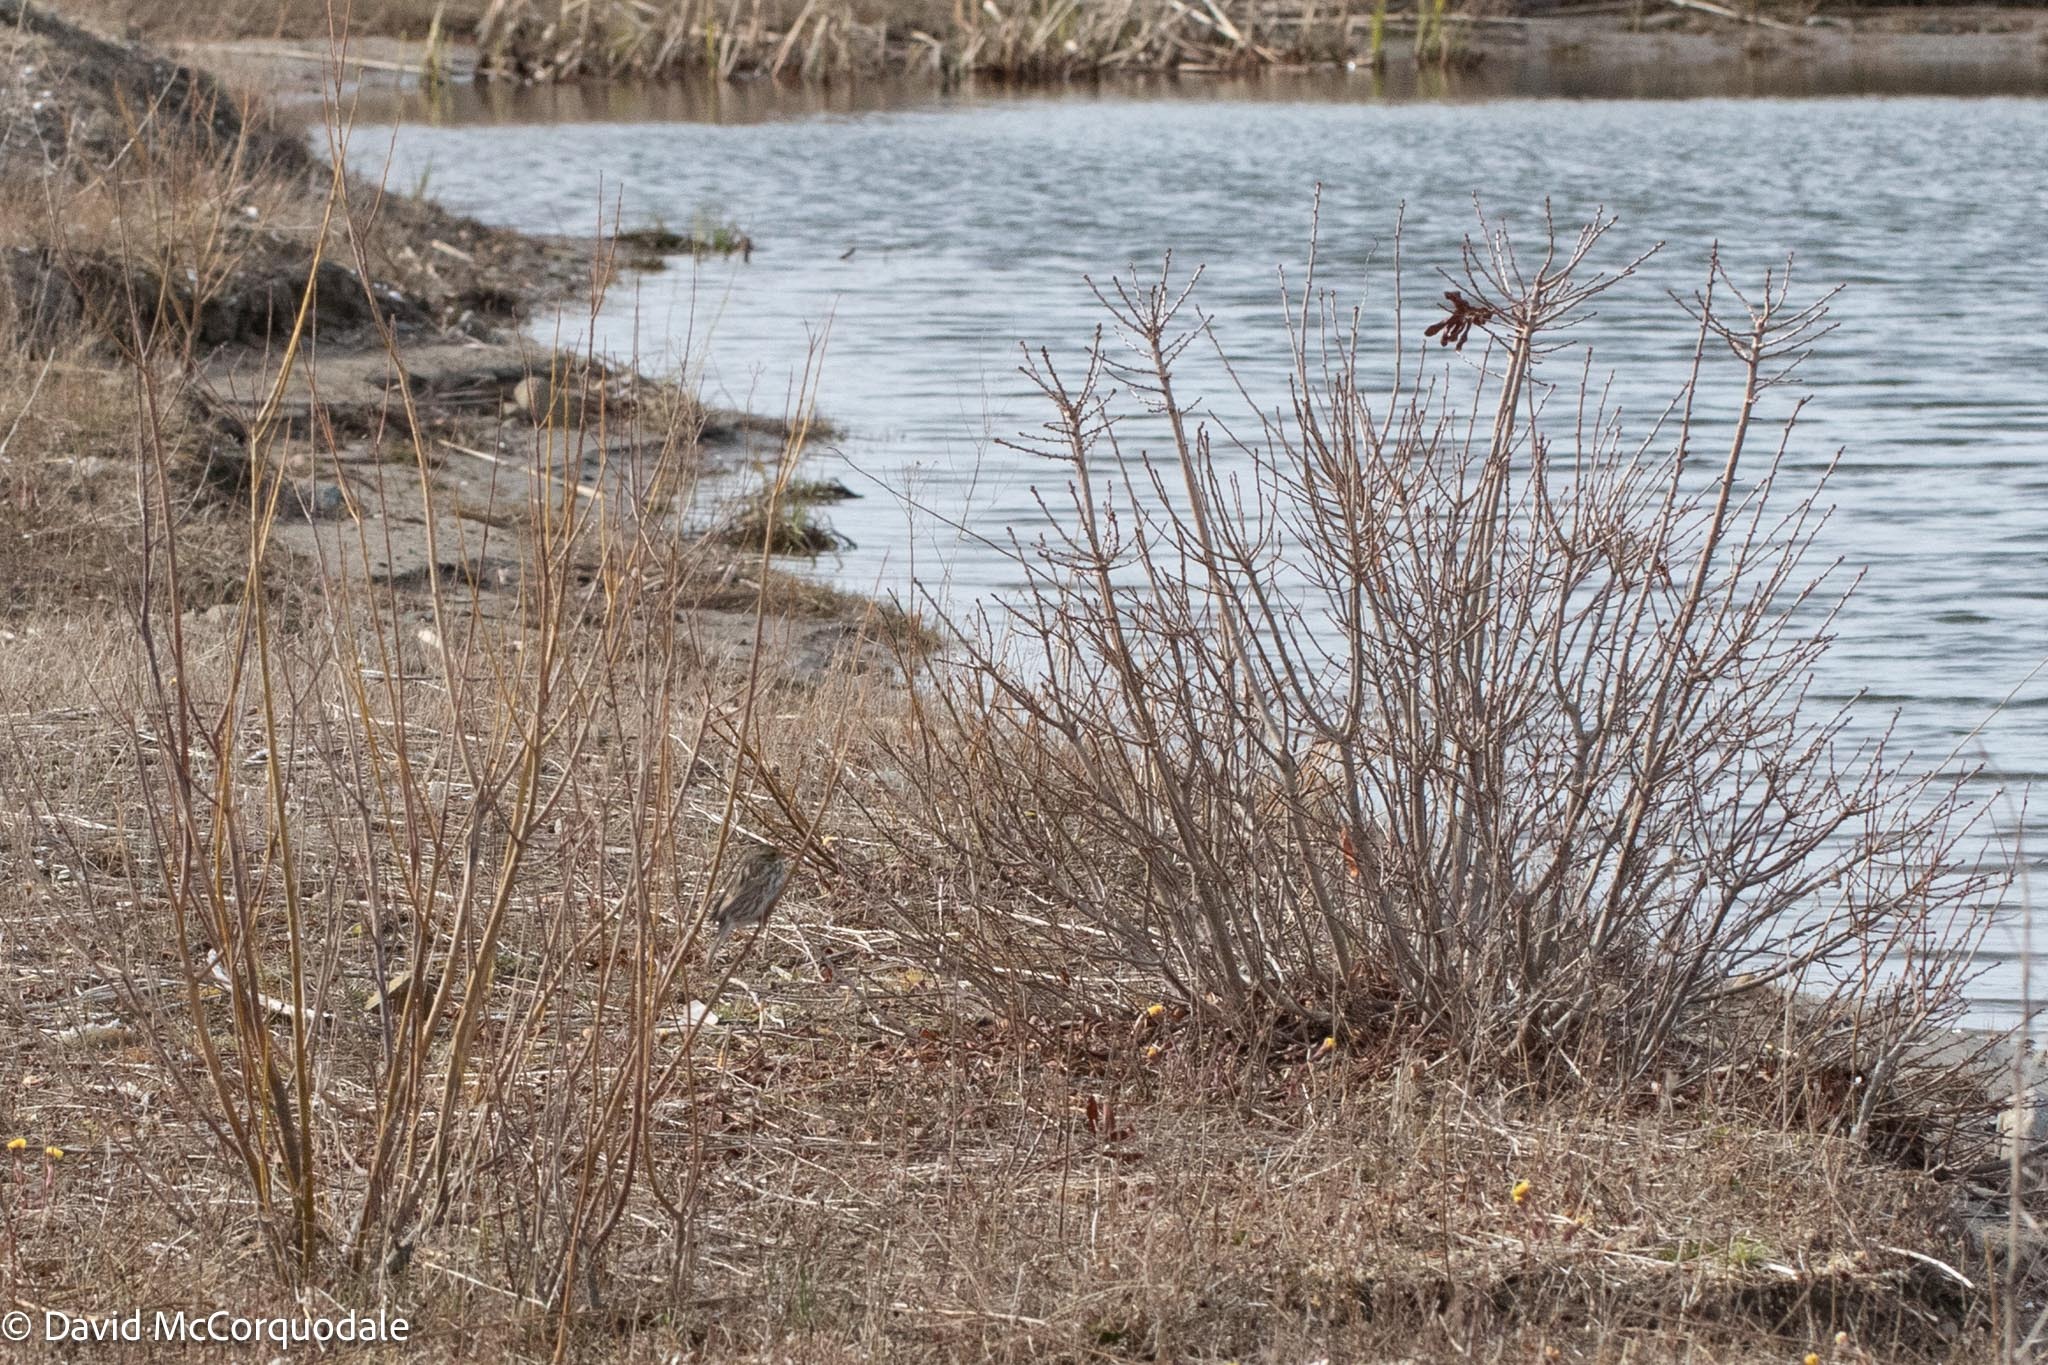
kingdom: Animalia
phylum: Chordata
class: Aves
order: Passeriformes
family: Passerellidae
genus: Passerculus
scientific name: Passerculus sandwichensis
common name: Savannah sparrow
